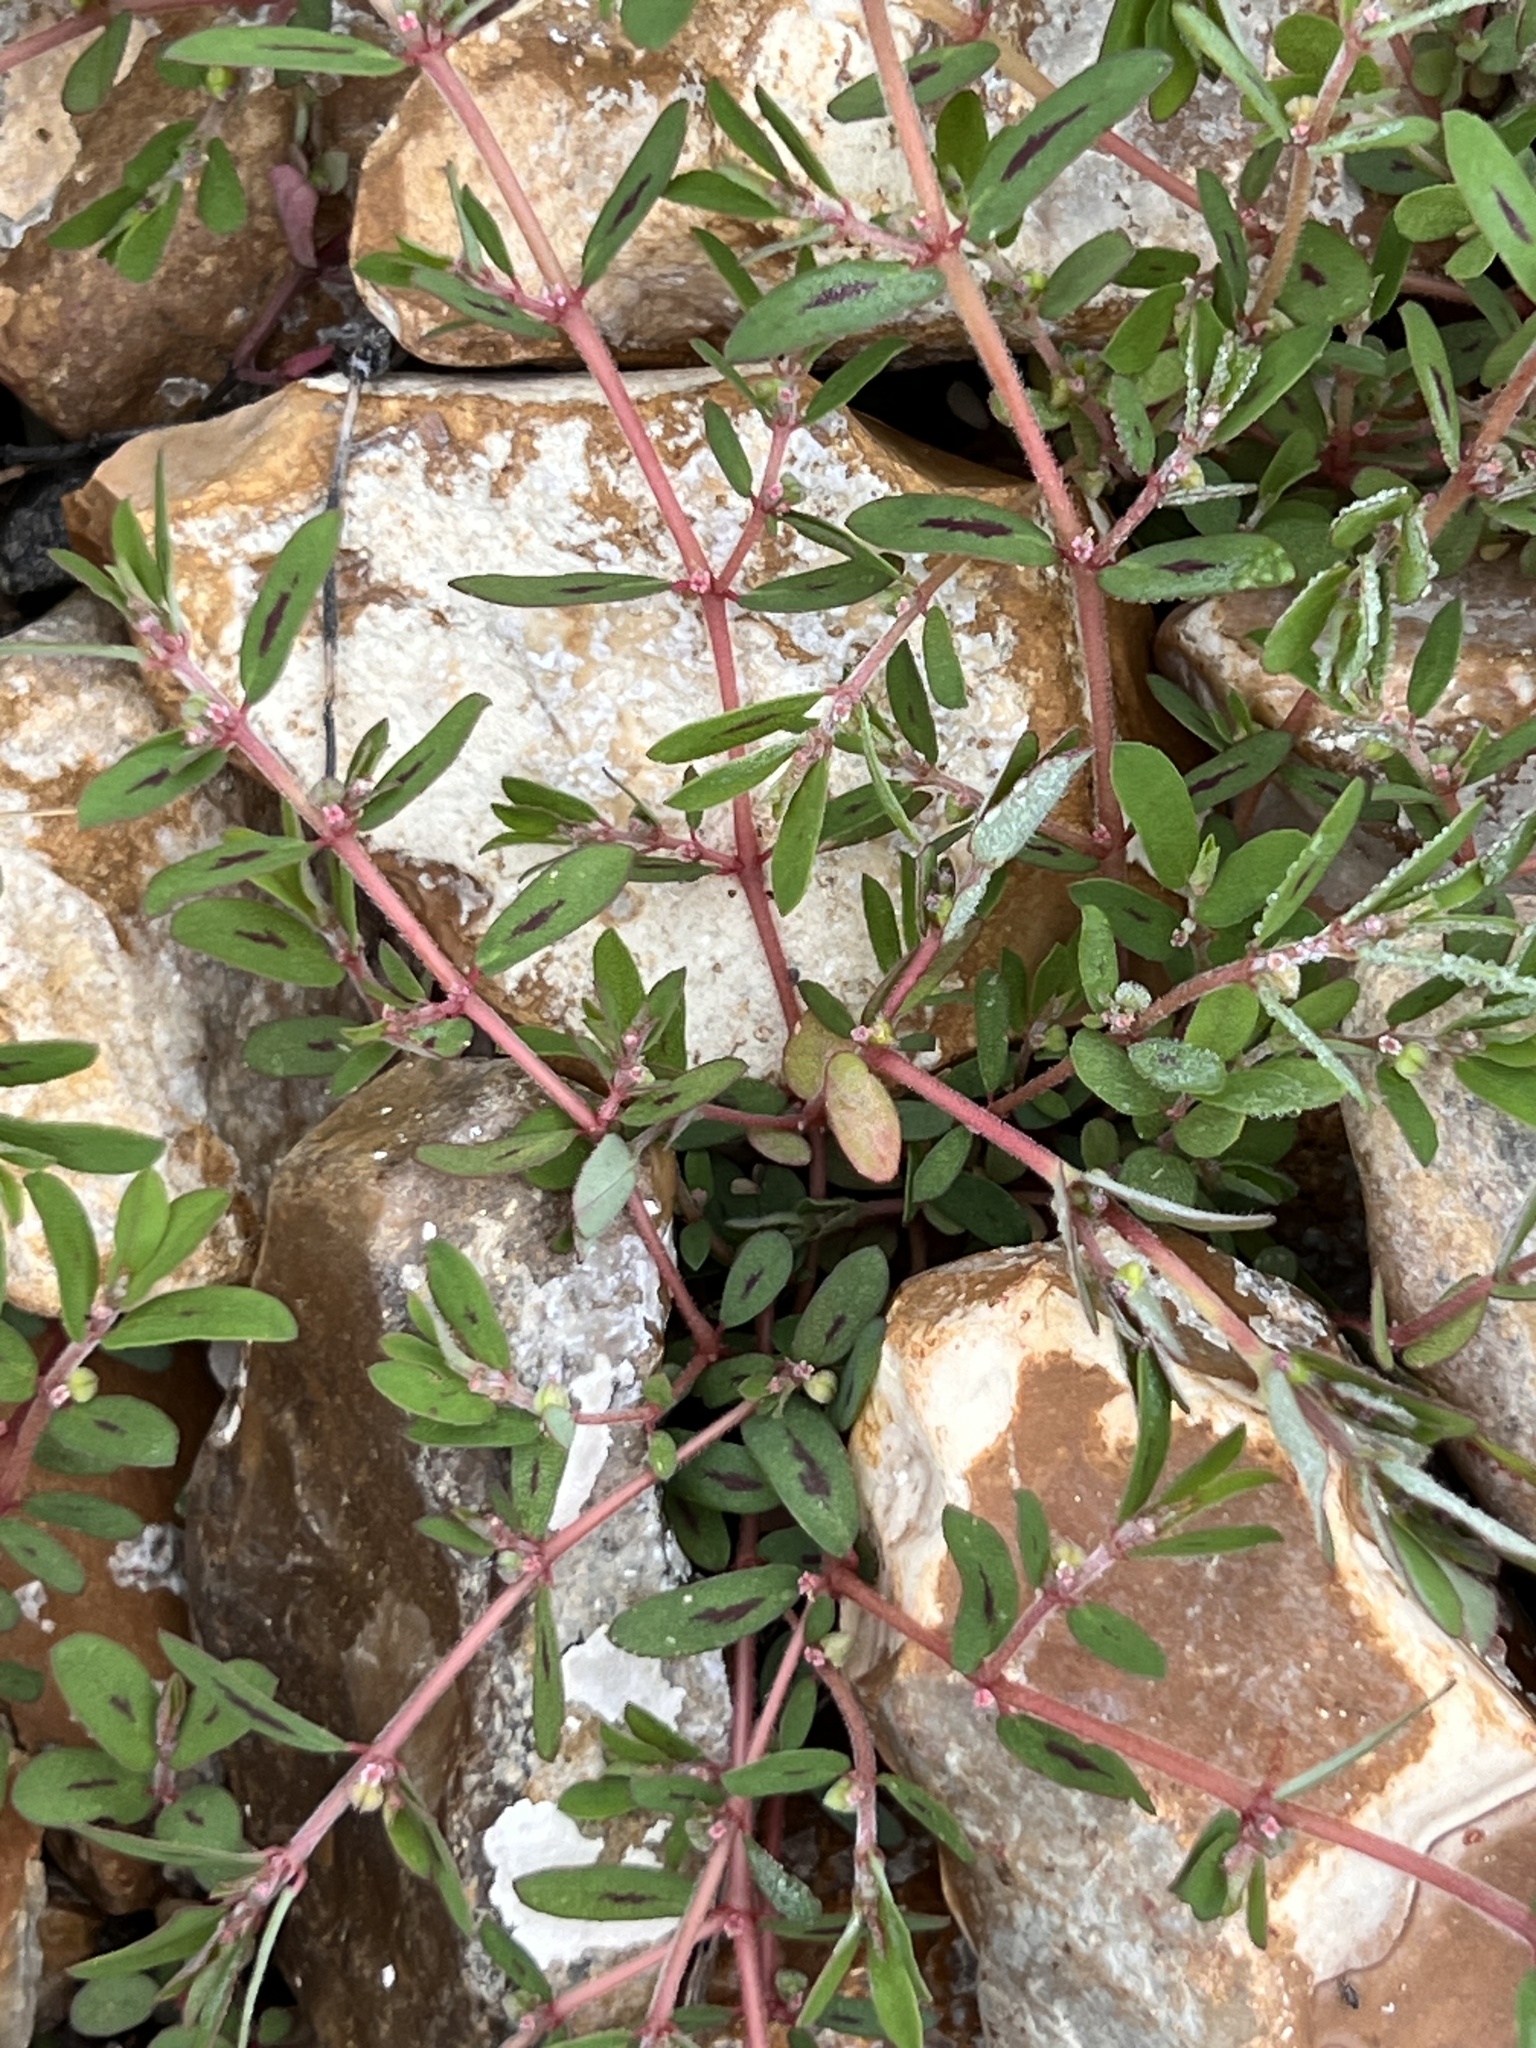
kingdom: Plantae
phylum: Tracheophyta
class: Magnoliopsida
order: Malpighiales
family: Euphorbiaceae
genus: Euphorbia
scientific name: Euphorbia maculata
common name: Spotted spurge
